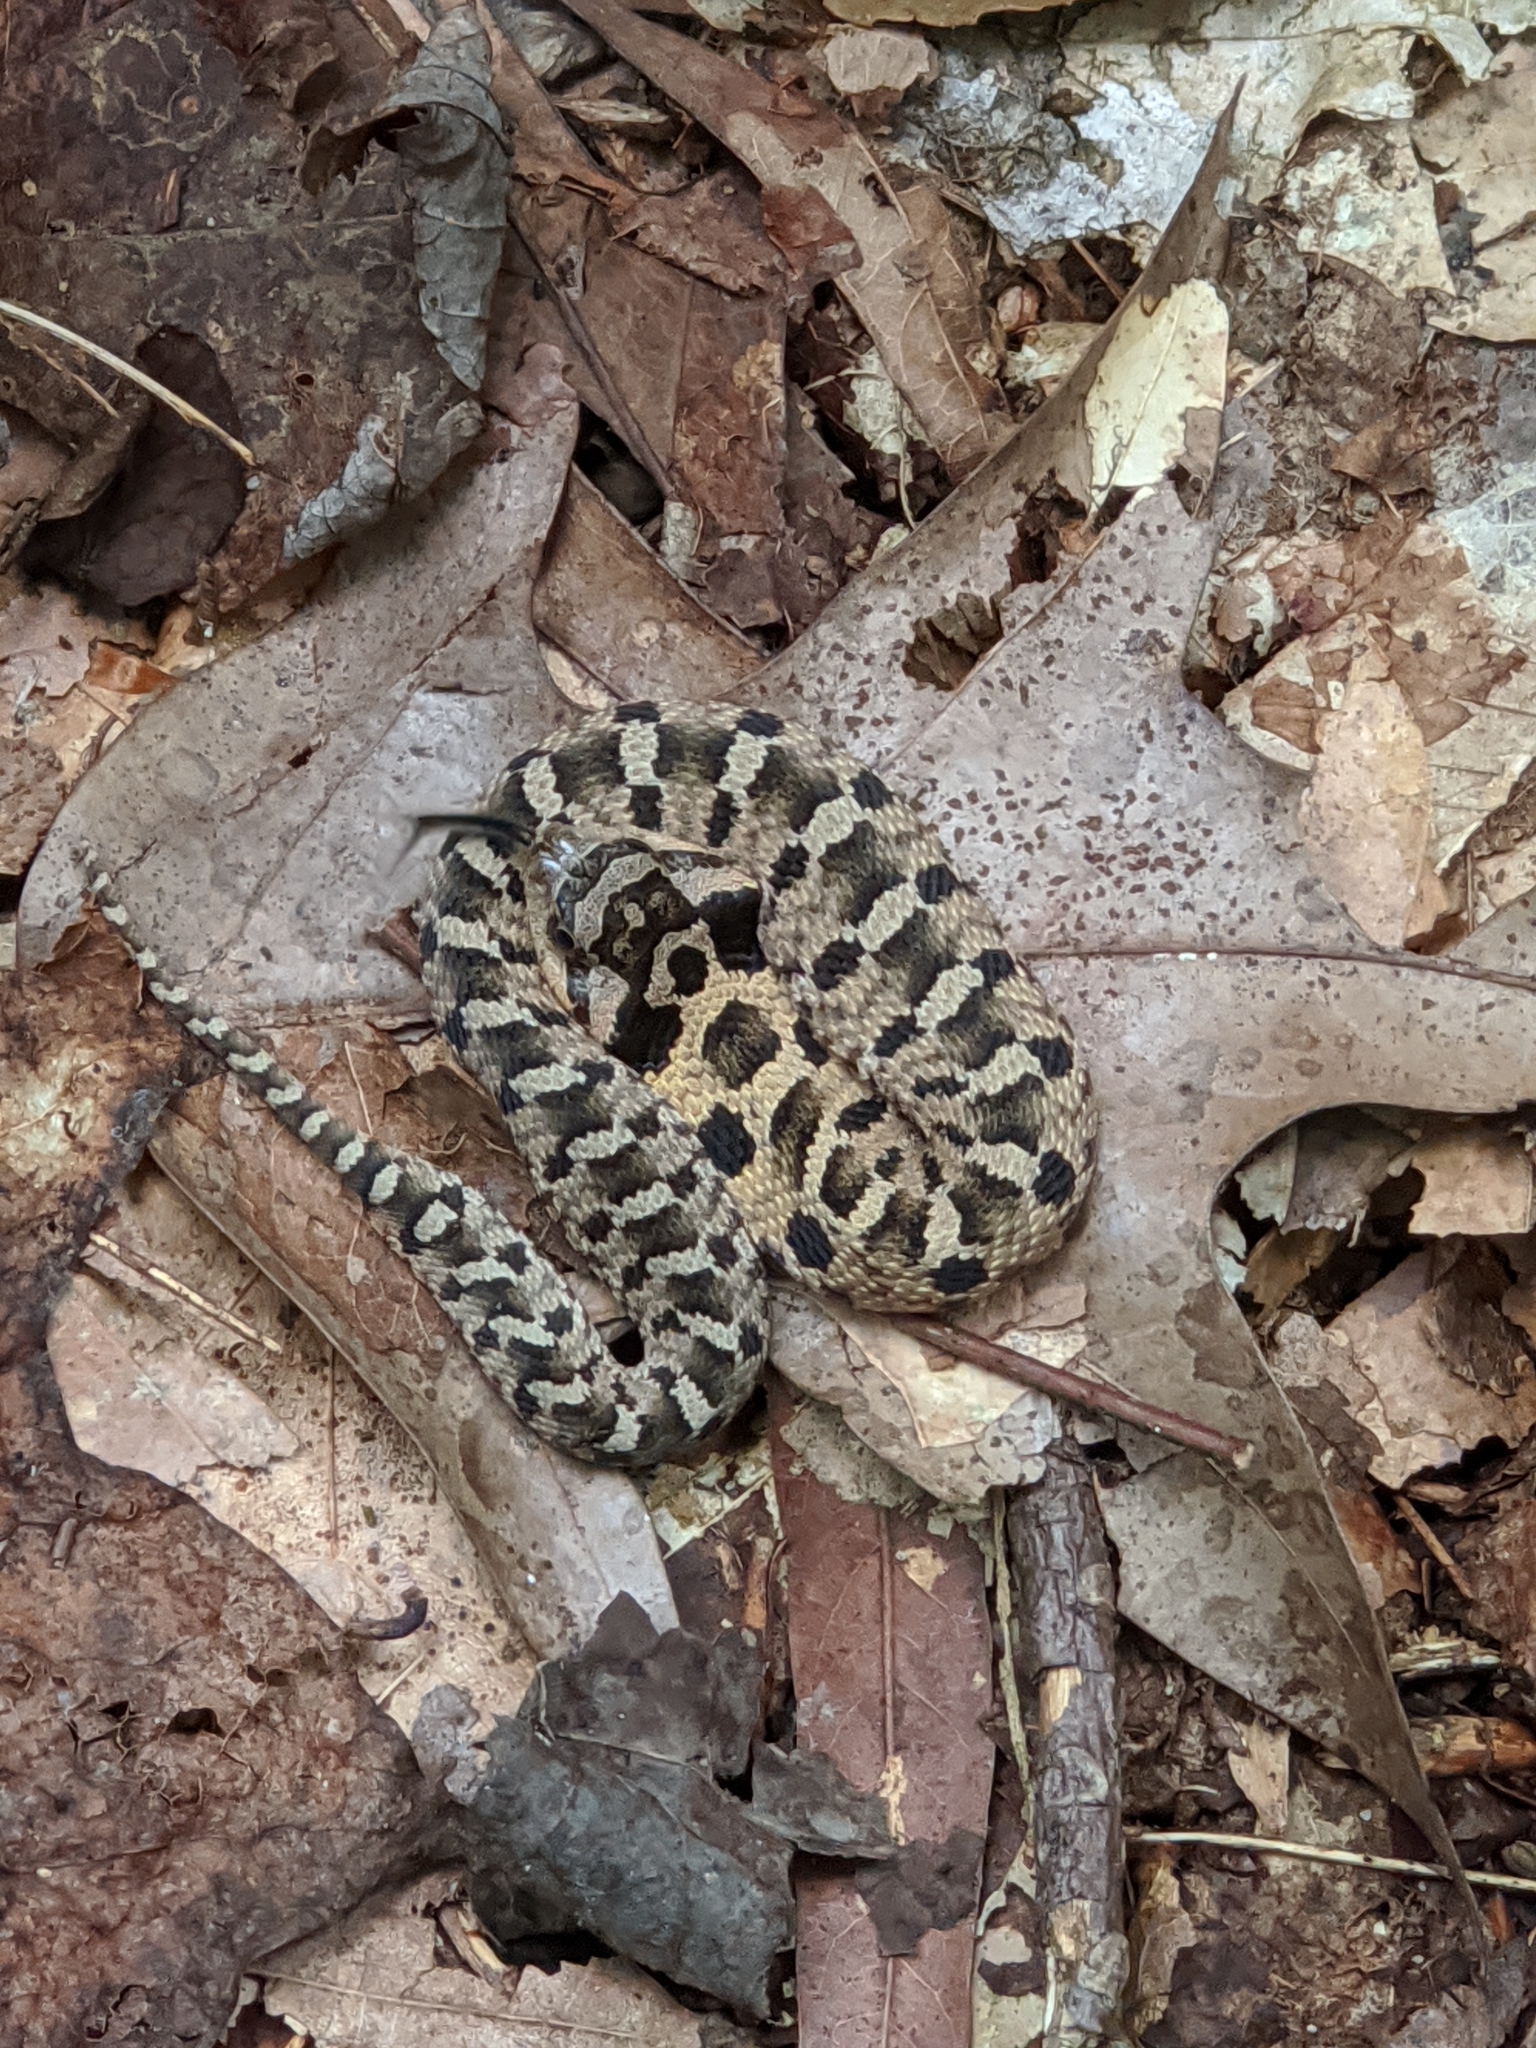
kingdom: Animalia
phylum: Chordata
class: Squamata
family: Colubridae
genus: Heterodon
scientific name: Heterodon platirhinos
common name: Eastern hognose snake
